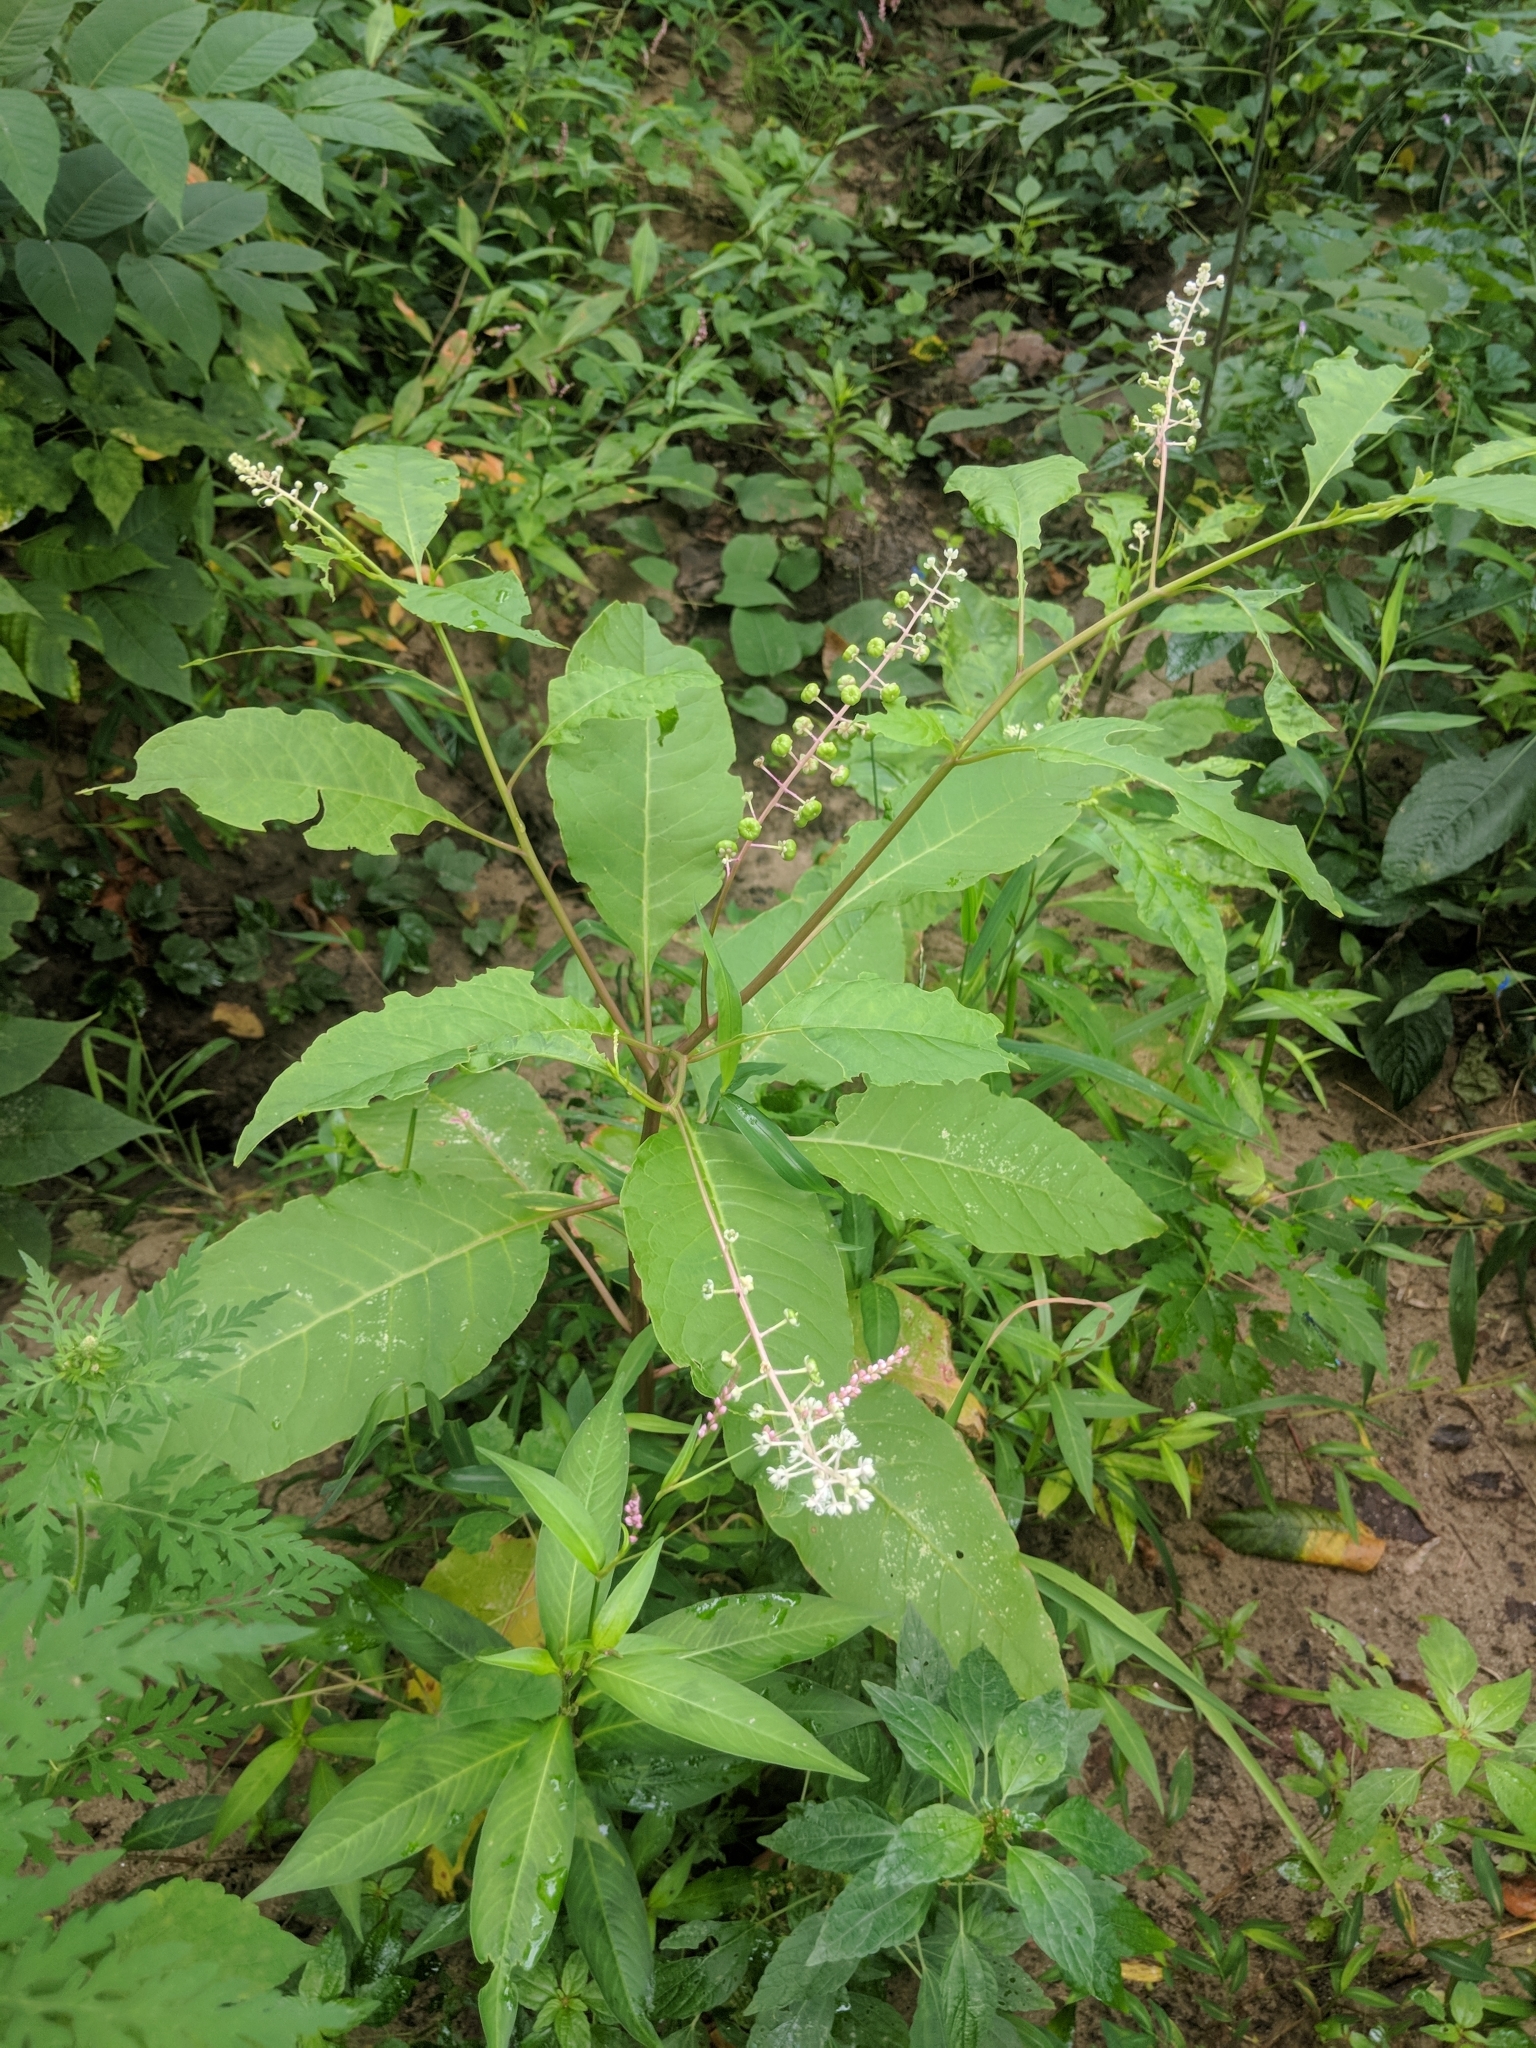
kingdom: Plantae
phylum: Tracheophyta
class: Magnoliopsida
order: Caryophyllales
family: Phytolaccaceae
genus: Phytolacca
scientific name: Phytolacca americana
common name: American pokeweed
